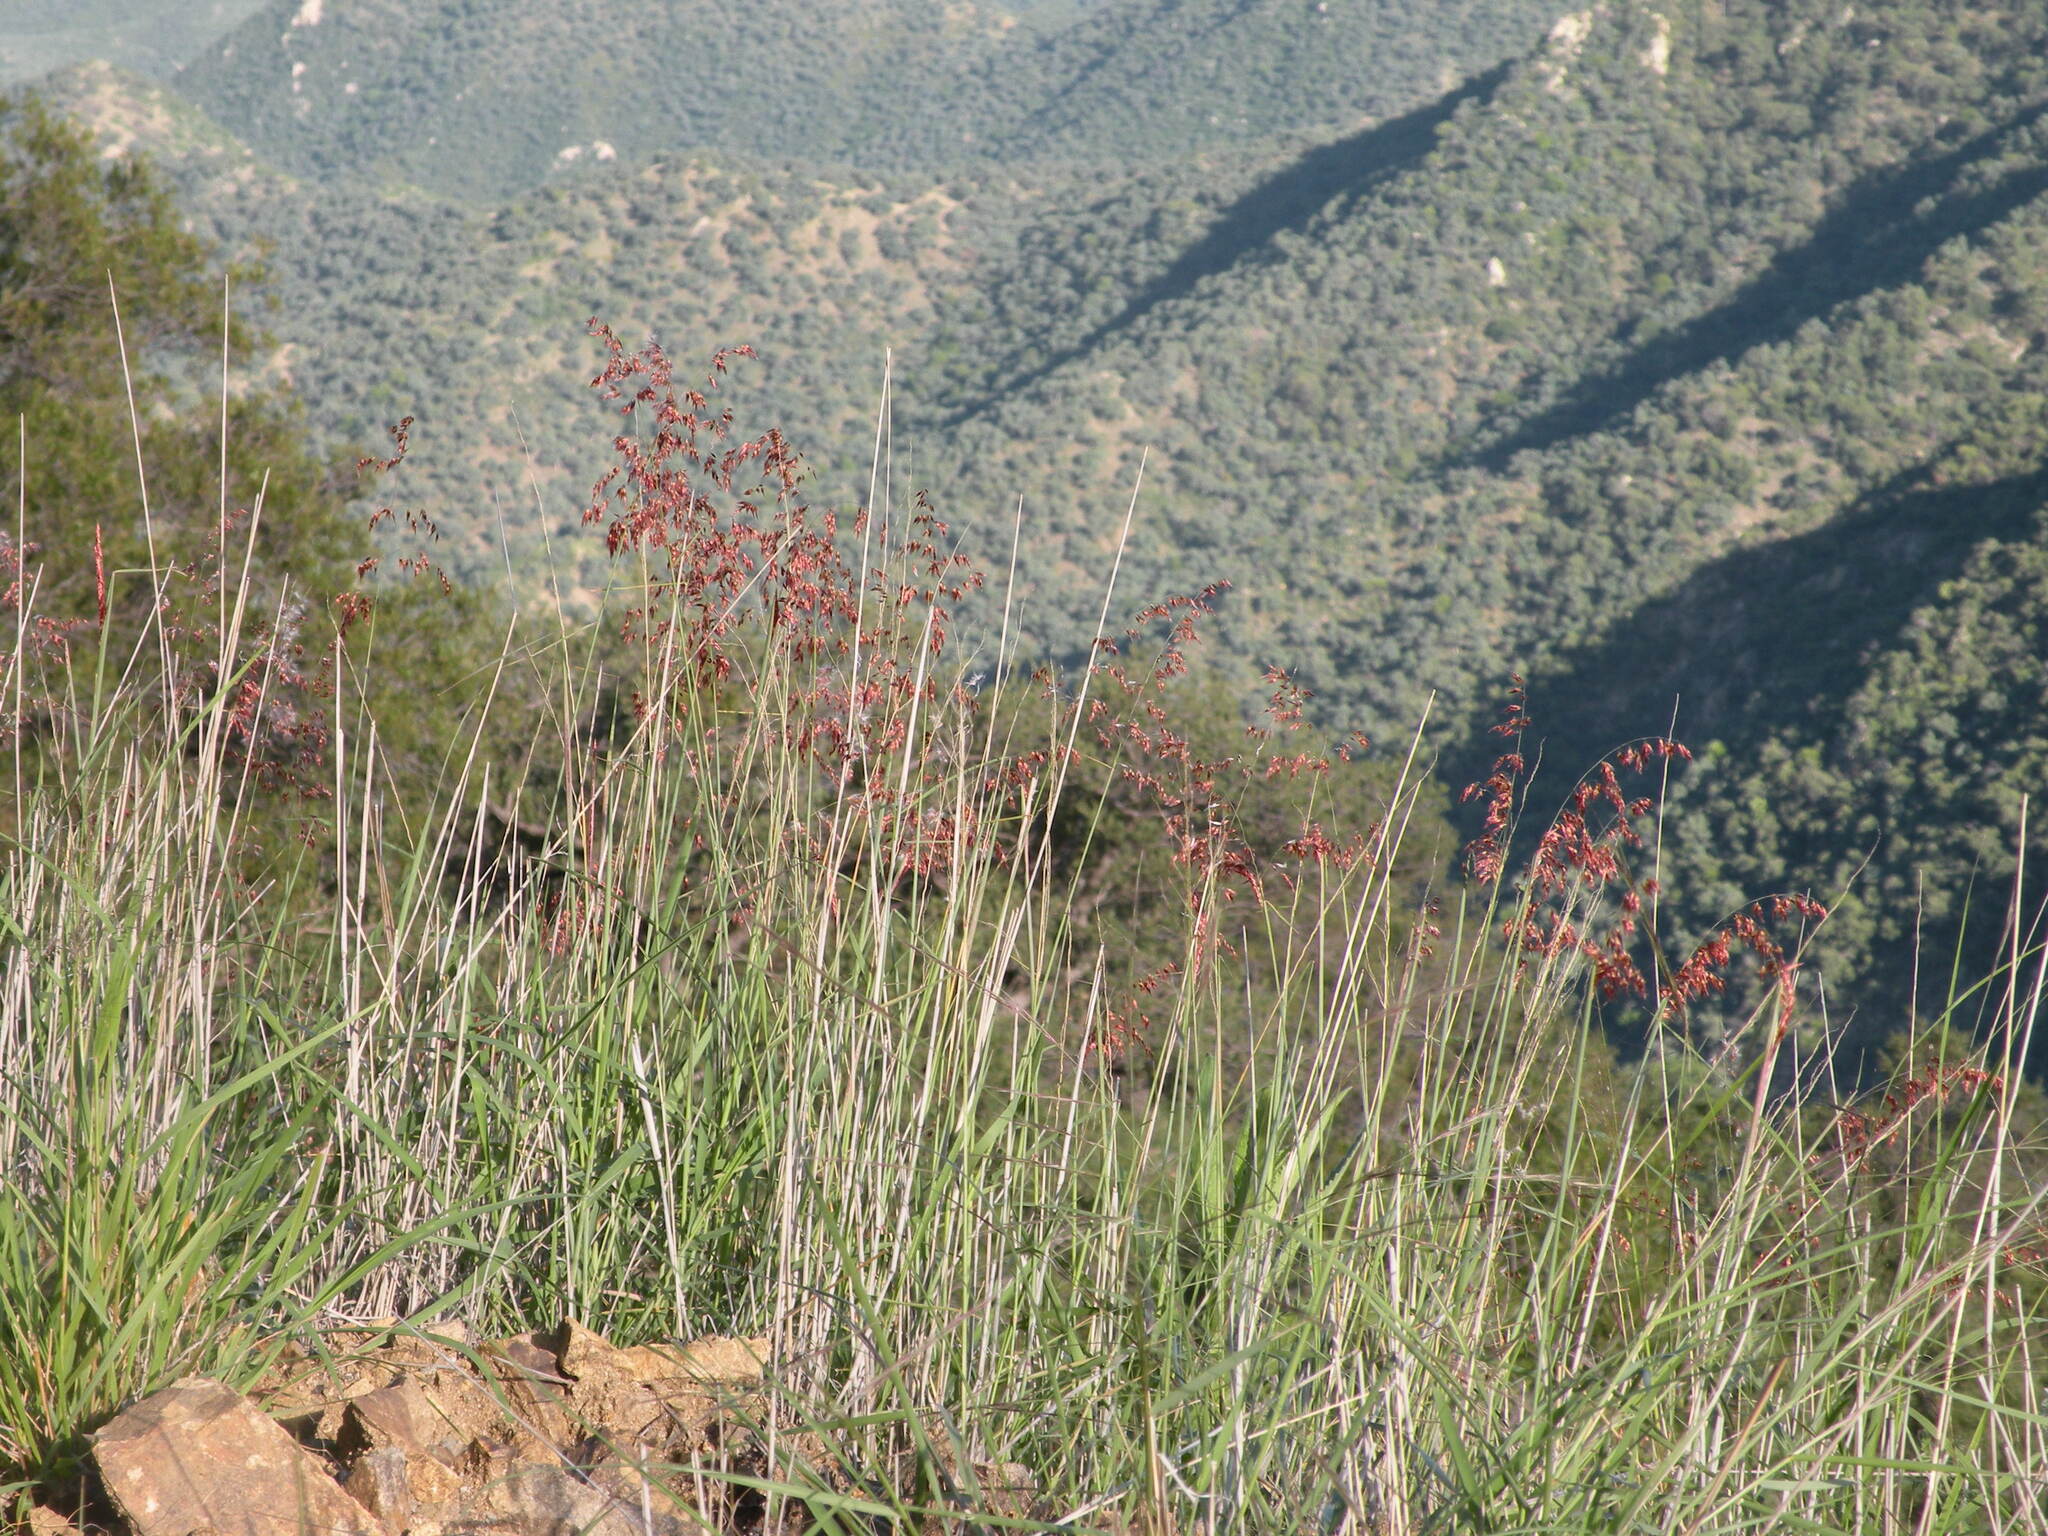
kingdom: Plantae
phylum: Tracheophyta
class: Liliopsida
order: Poales
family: Poaceae
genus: Melinis
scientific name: Melinis repens
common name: Rose natal grass
